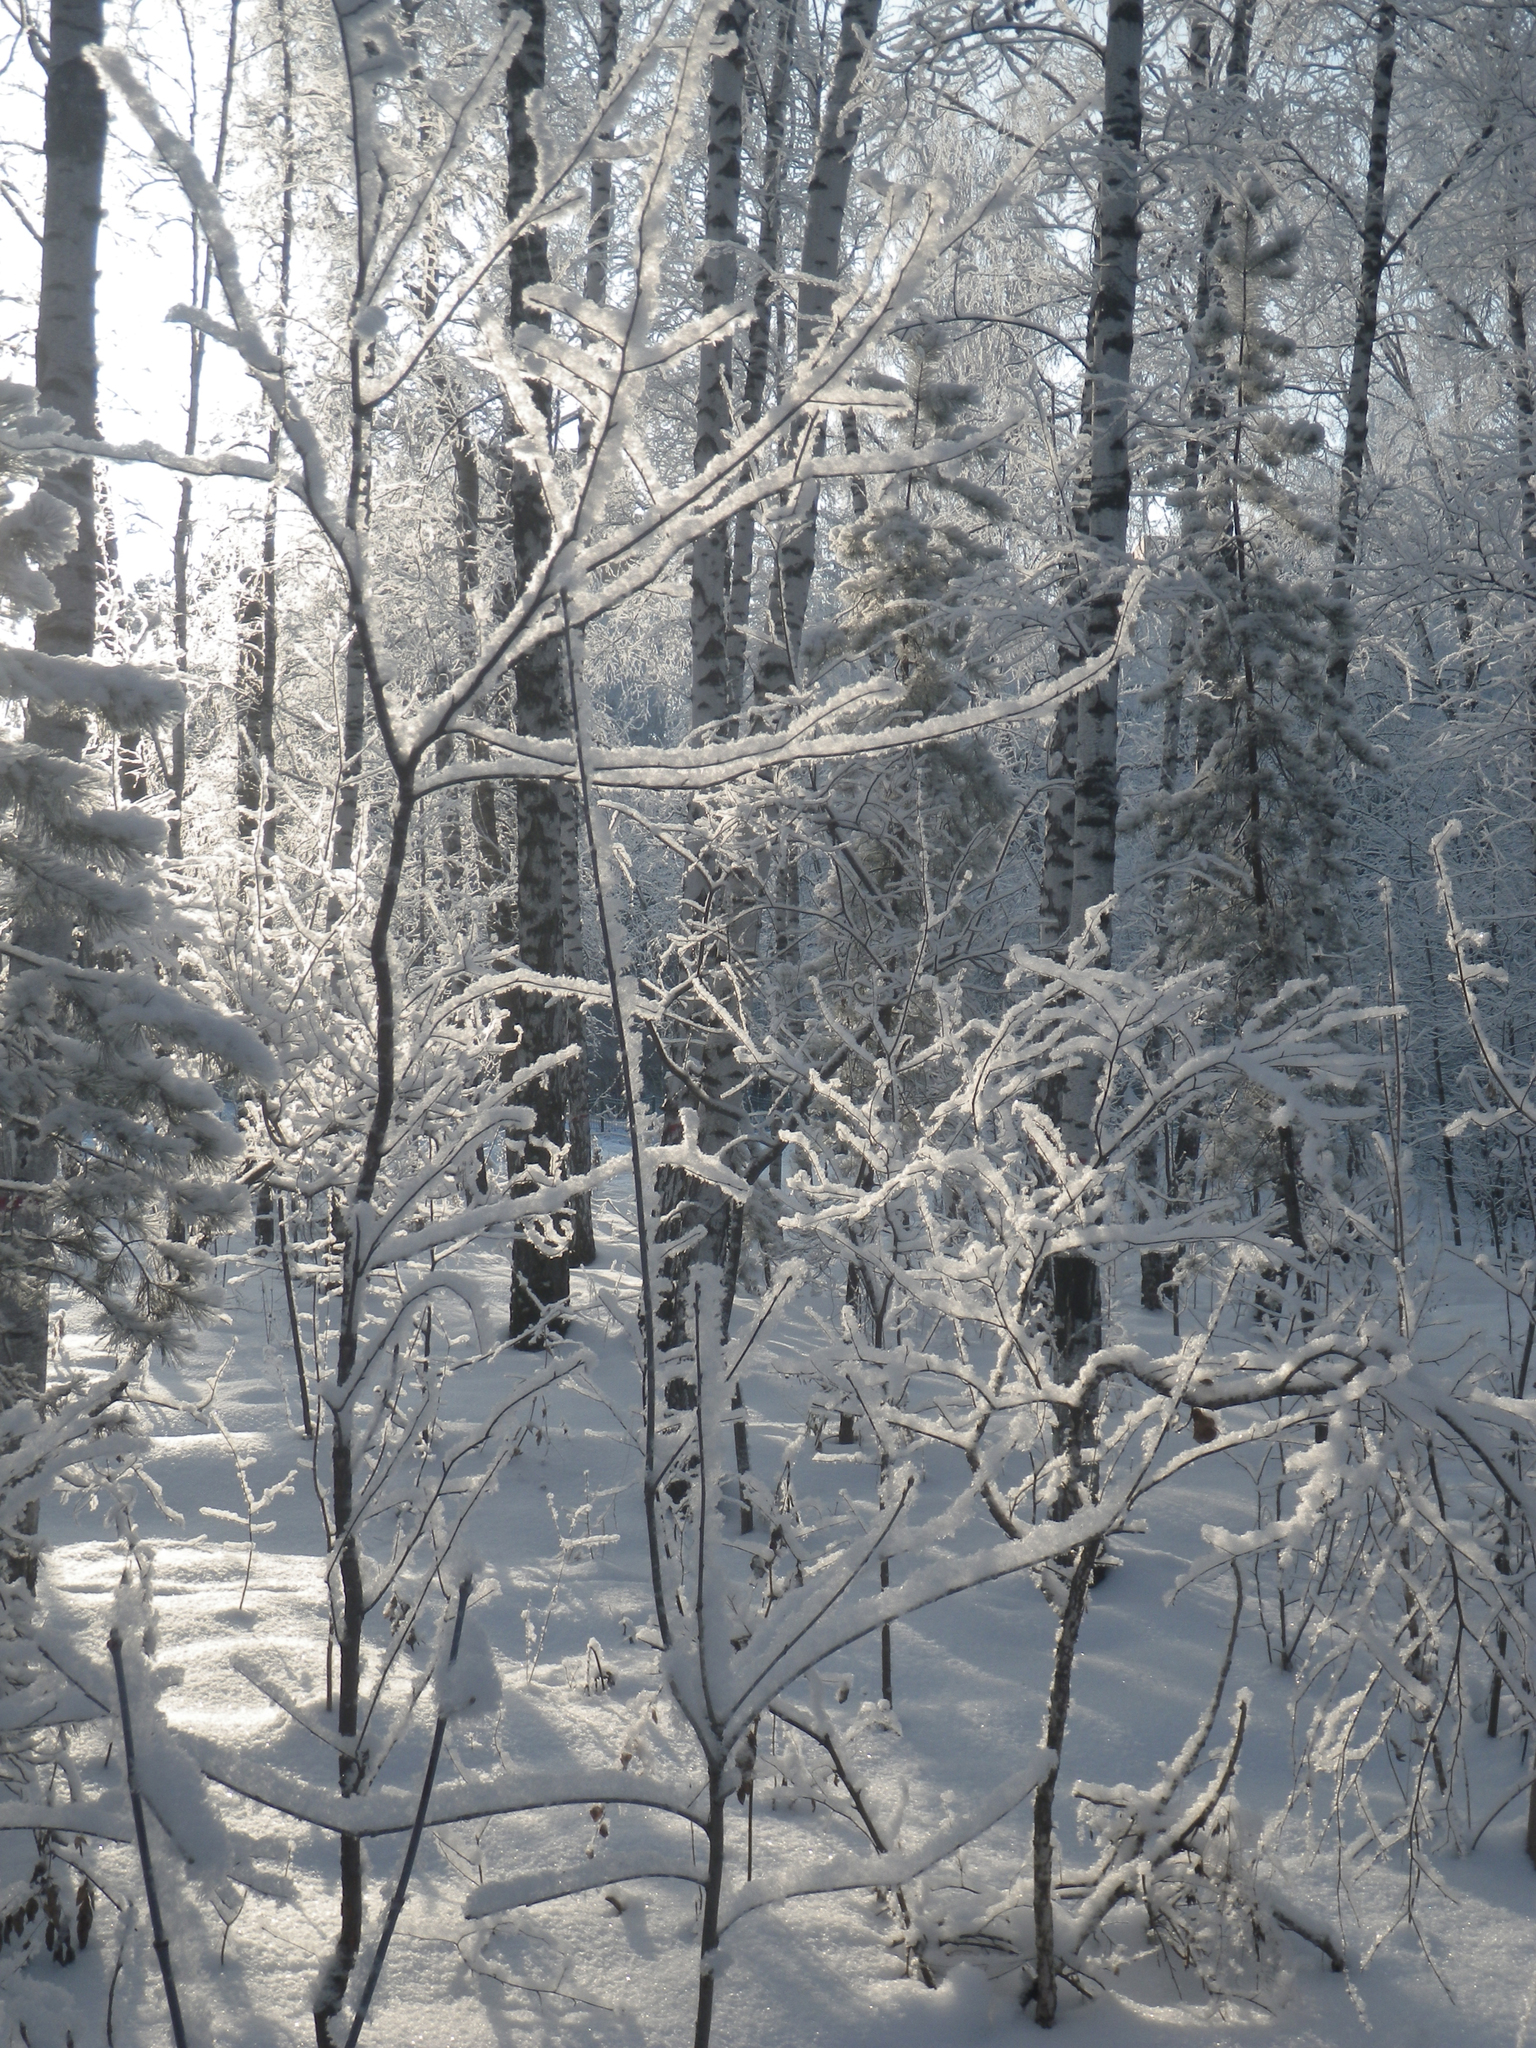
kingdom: Plantae
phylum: Tracheophyta
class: Magnoliopsida
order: Sapindales
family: Sapindaceae
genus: Acer
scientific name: Acer negundo
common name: Ashleaf maple
